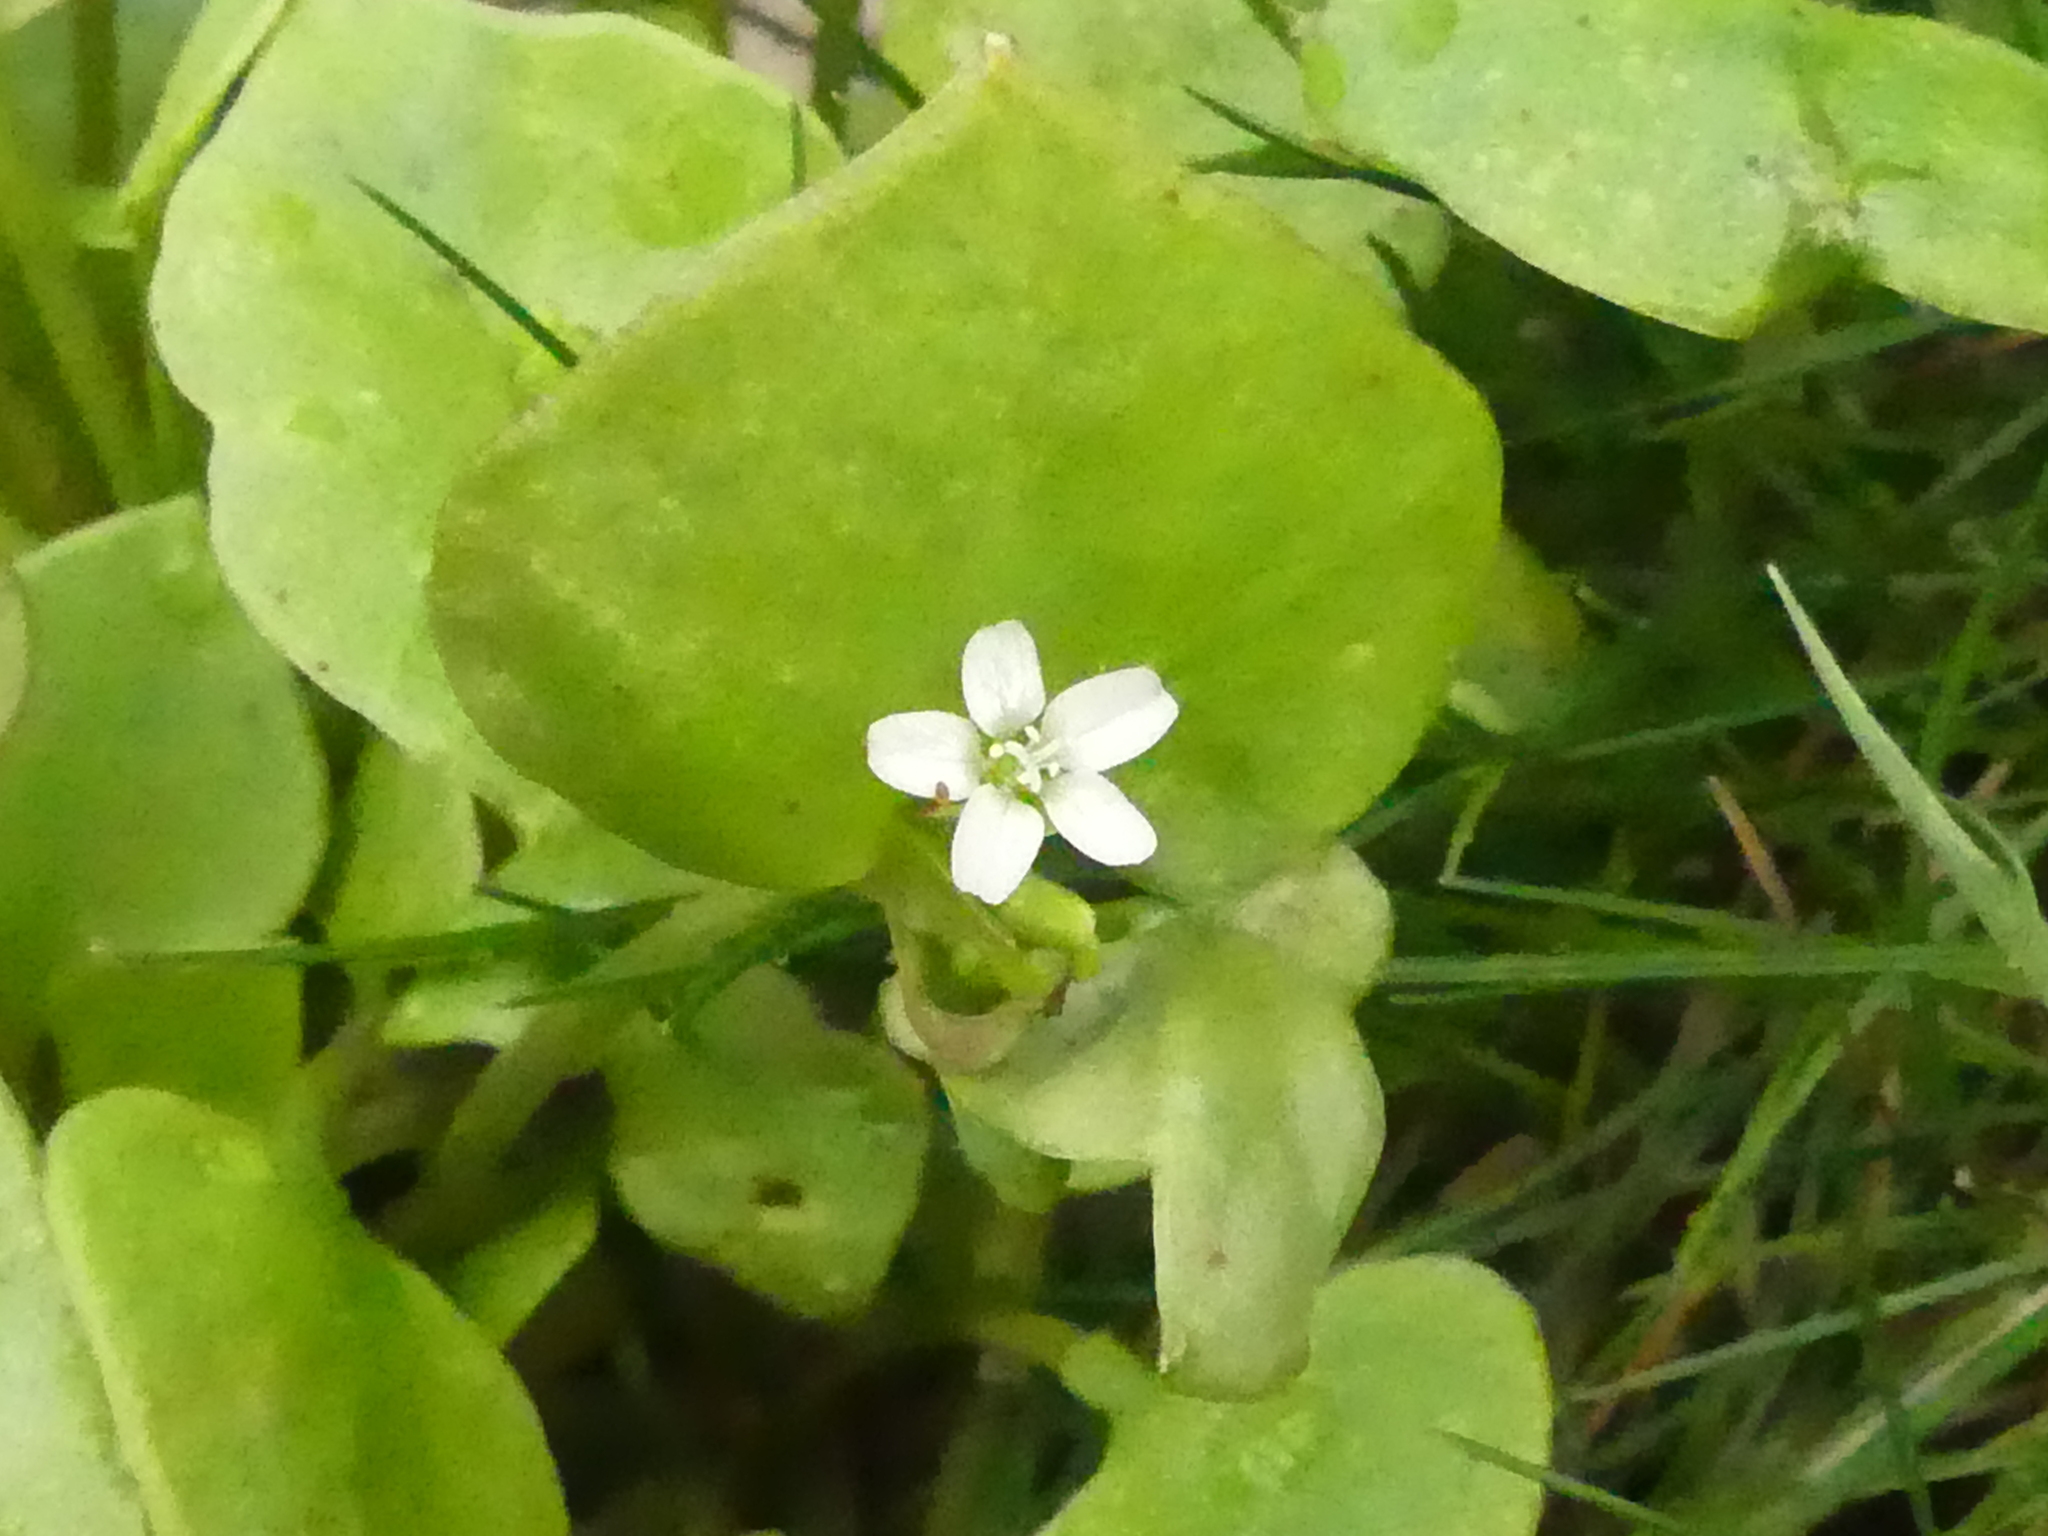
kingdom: Plantae
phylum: Tracheophyta
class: Magnoliopsida
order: Caryophyllales
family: Montiaceae
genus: Claytonia
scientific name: Claytonia perfoliata
